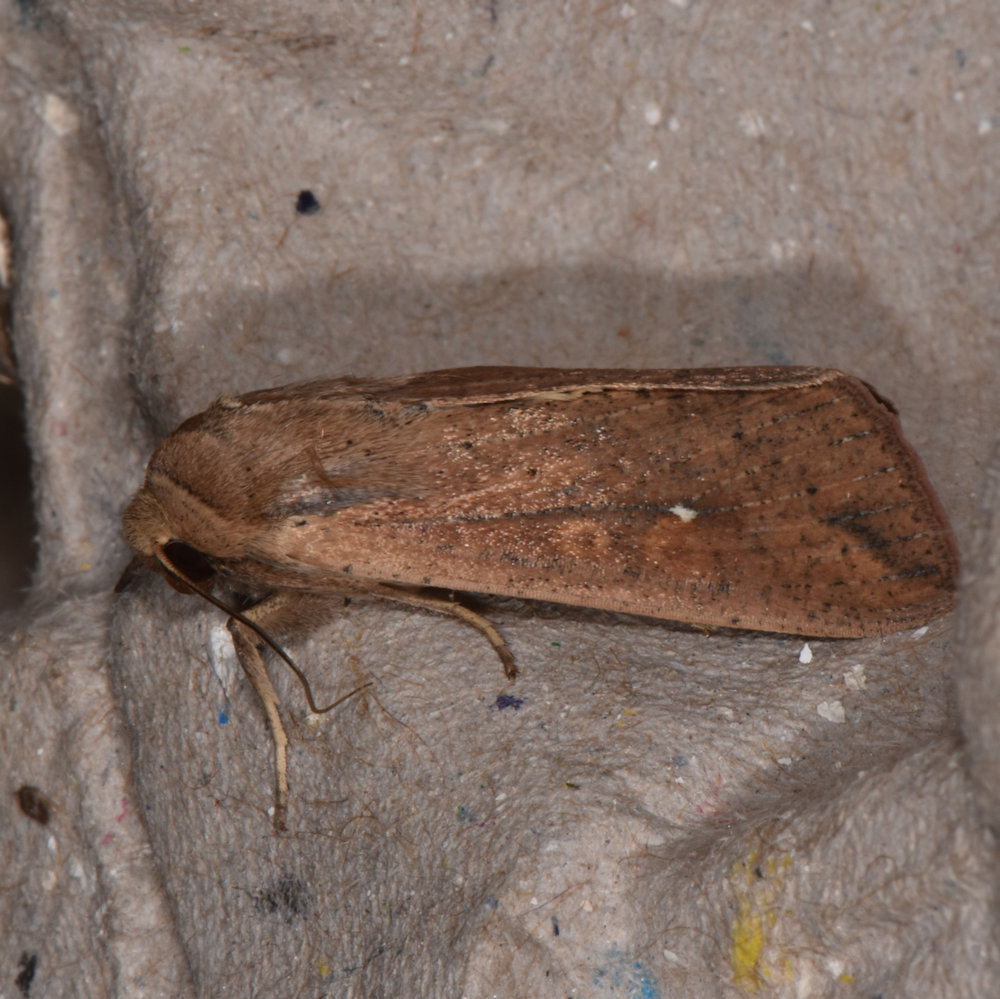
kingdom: Animalia
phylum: Arthropoda
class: Insecta
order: Lepidoptera
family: Noctuidae
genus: Mythimna
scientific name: Mythimna unipuncta
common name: White-speck
